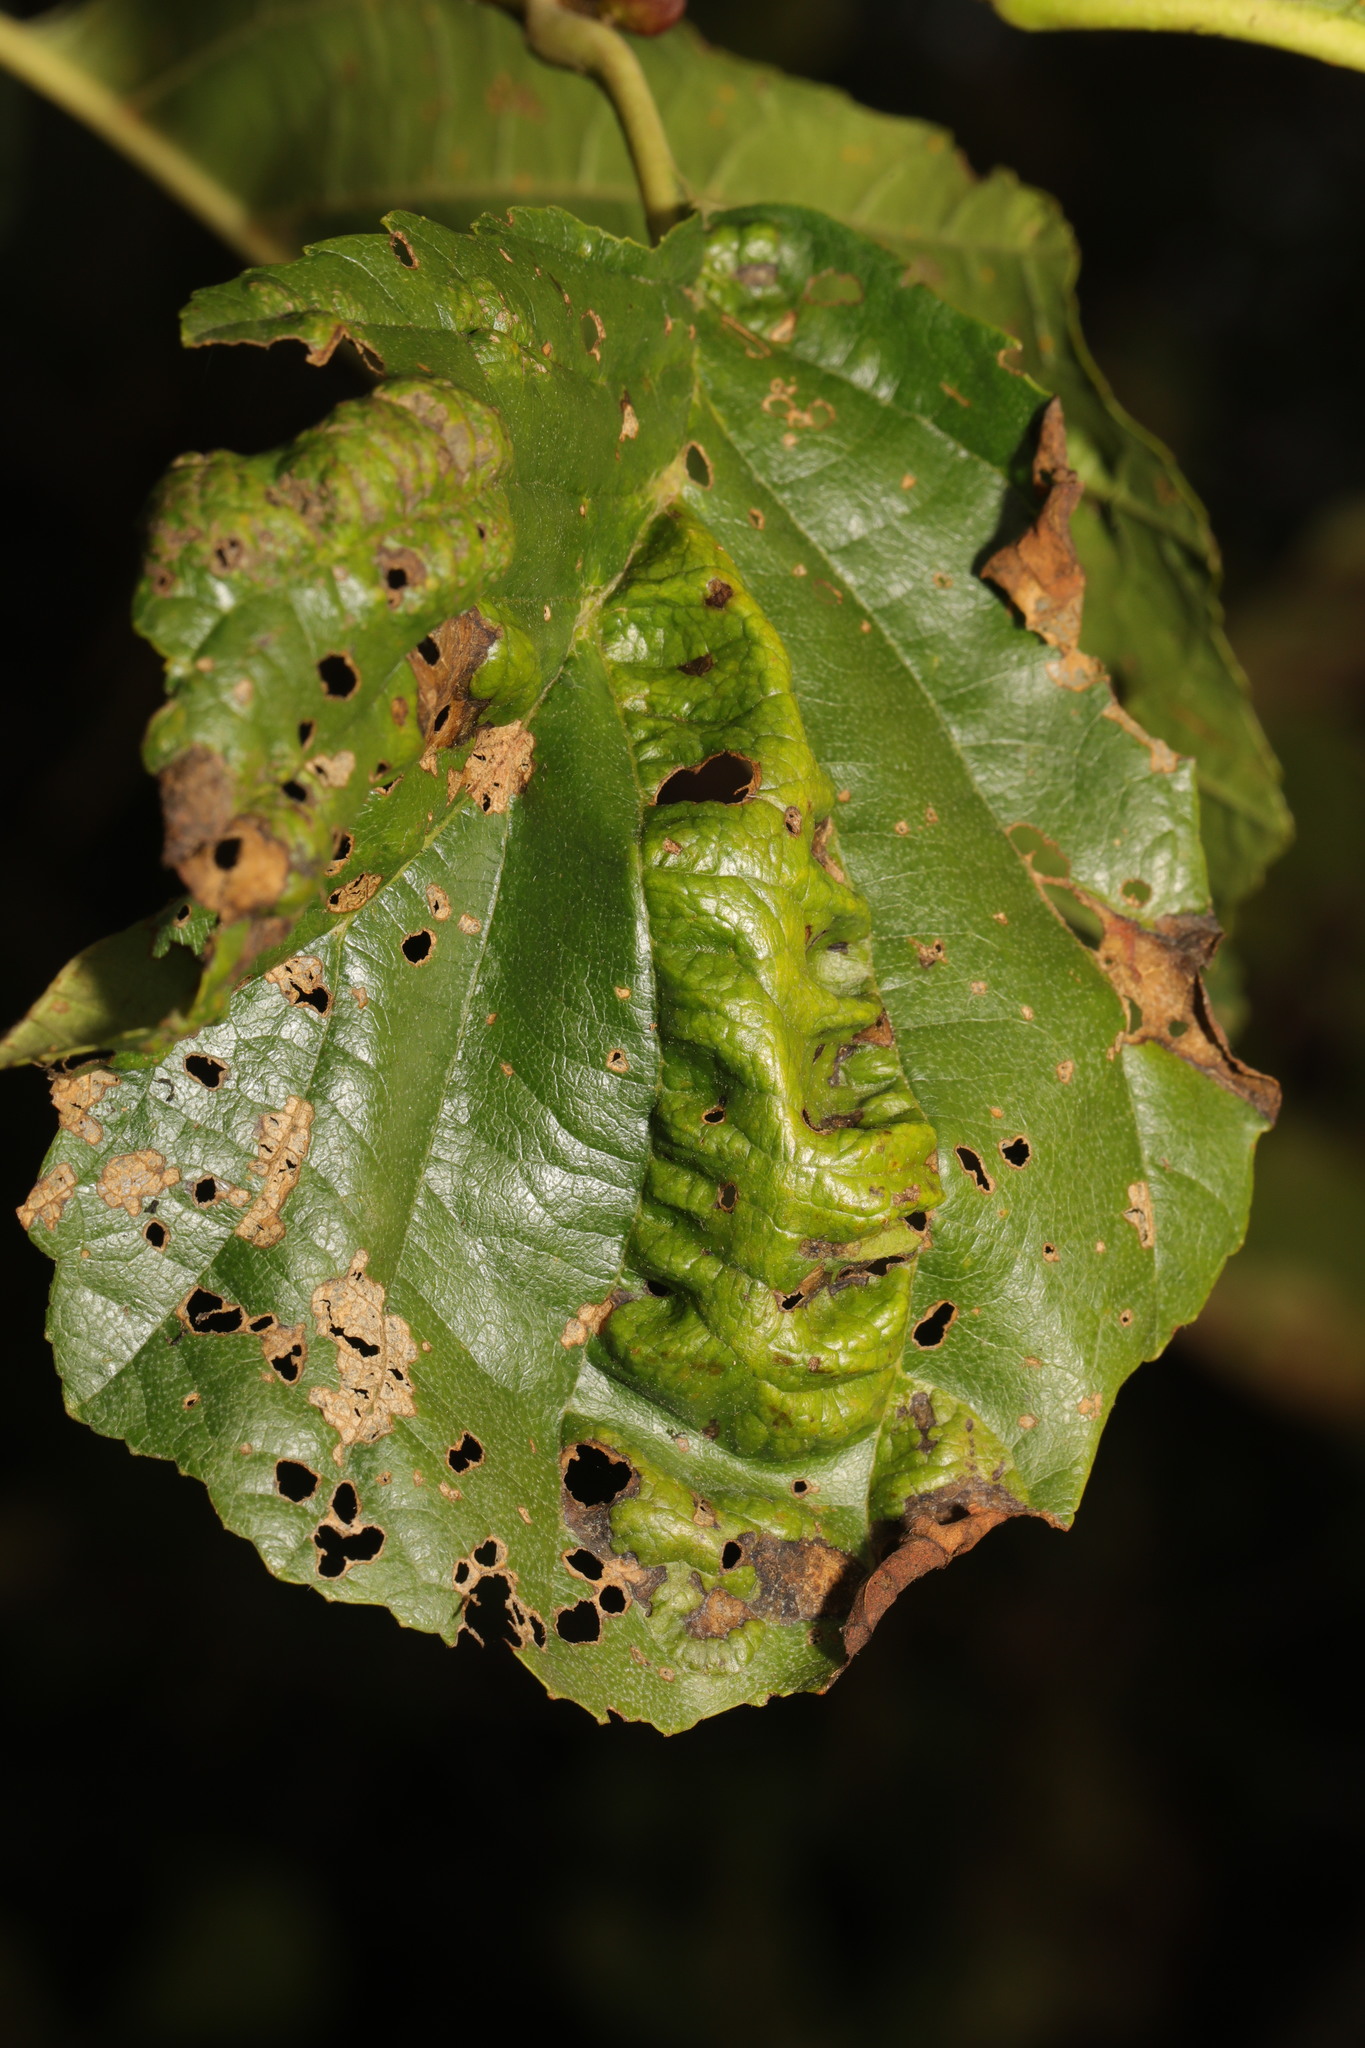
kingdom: Fungi
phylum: Ascomycota
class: Taphrinomycetes
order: Taphrinales
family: Taphrinaceae
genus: Taphrina
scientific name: Taphrina tosquinetii
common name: Alder wrinkle
